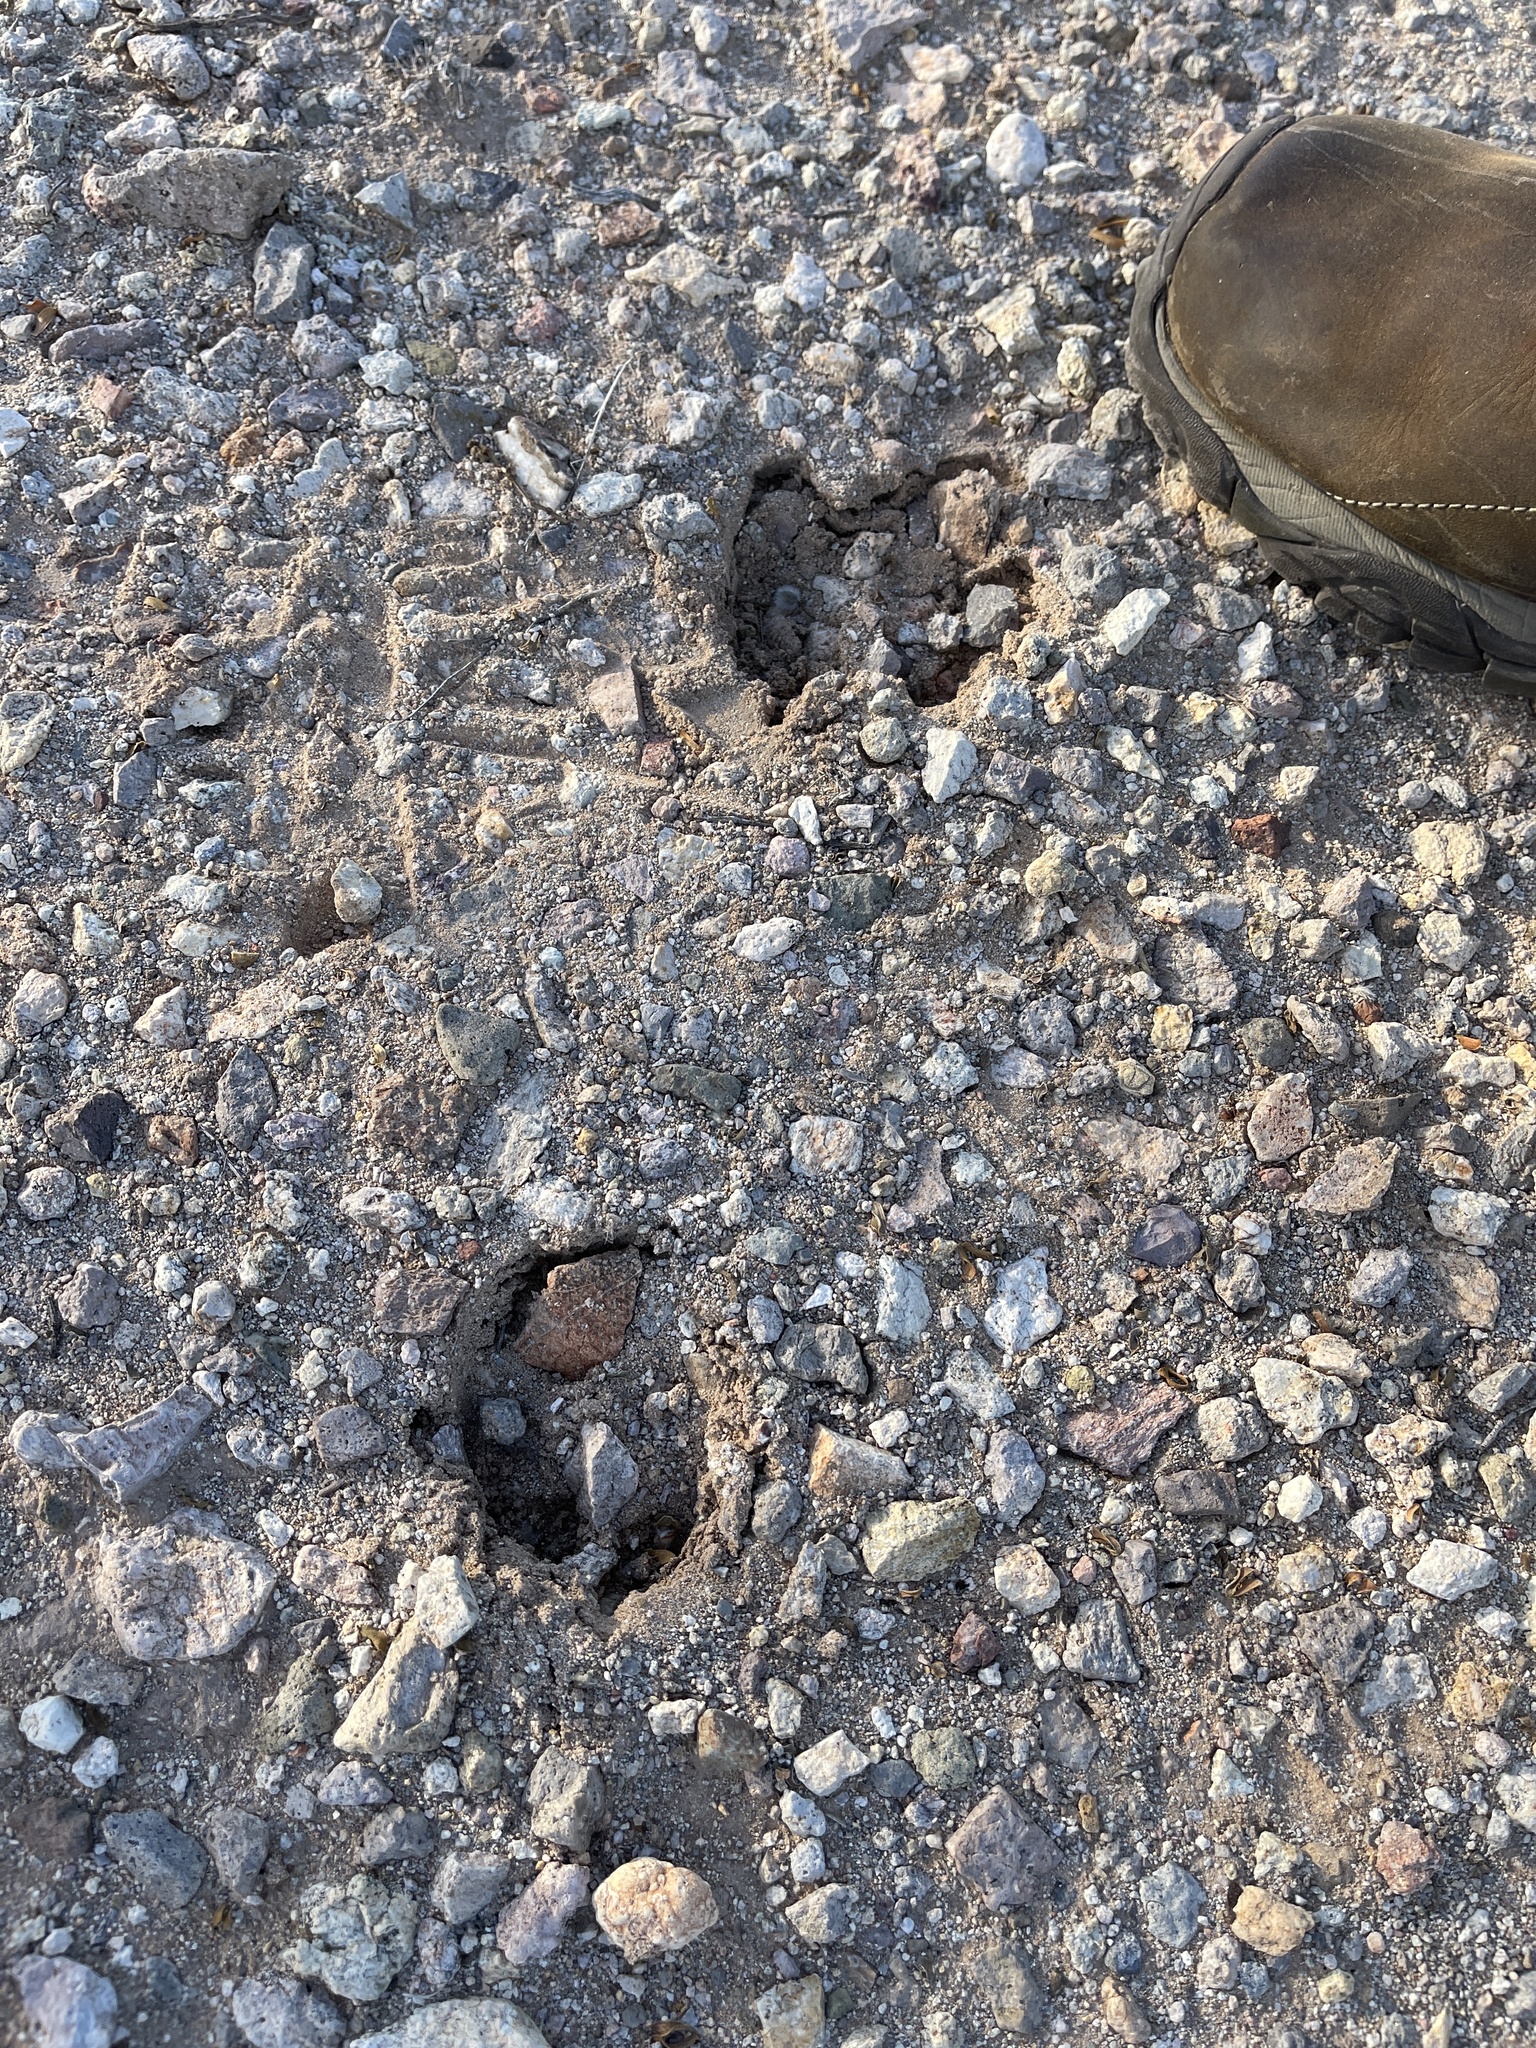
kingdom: Animalia
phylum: Chordata
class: Mammalia
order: Artiodactyla
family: Tayassuidae
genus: Pecari
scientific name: Pecari tajacu
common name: Collared peccary
